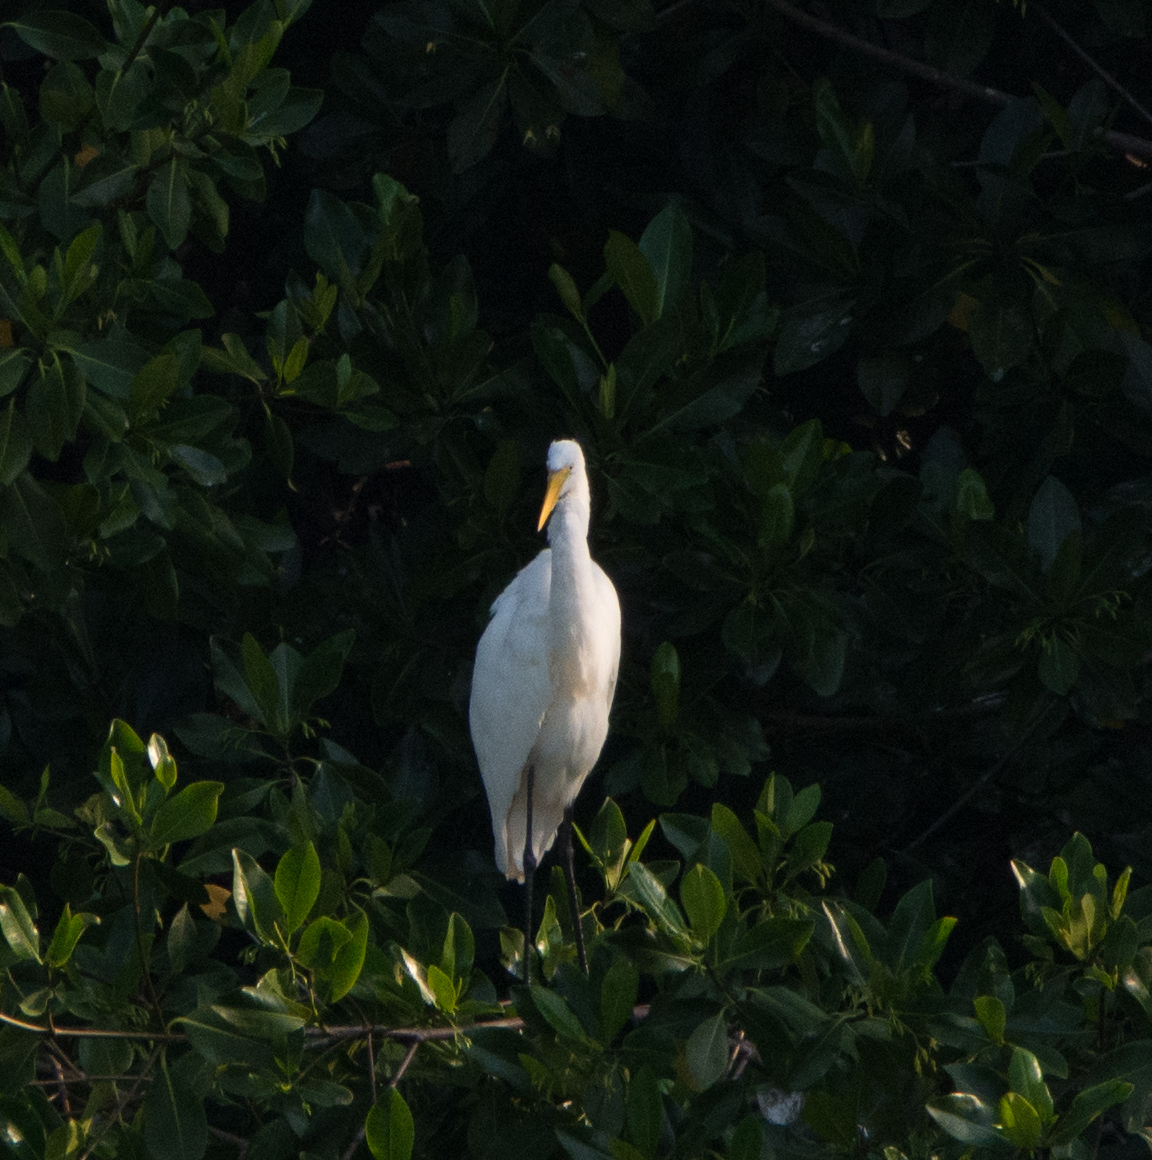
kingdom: Animalia
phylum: Chordata
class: Aves
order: Pelecaniformes
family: Ardeidae
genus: Ardea
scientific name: Ardea alba
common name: Great egret
